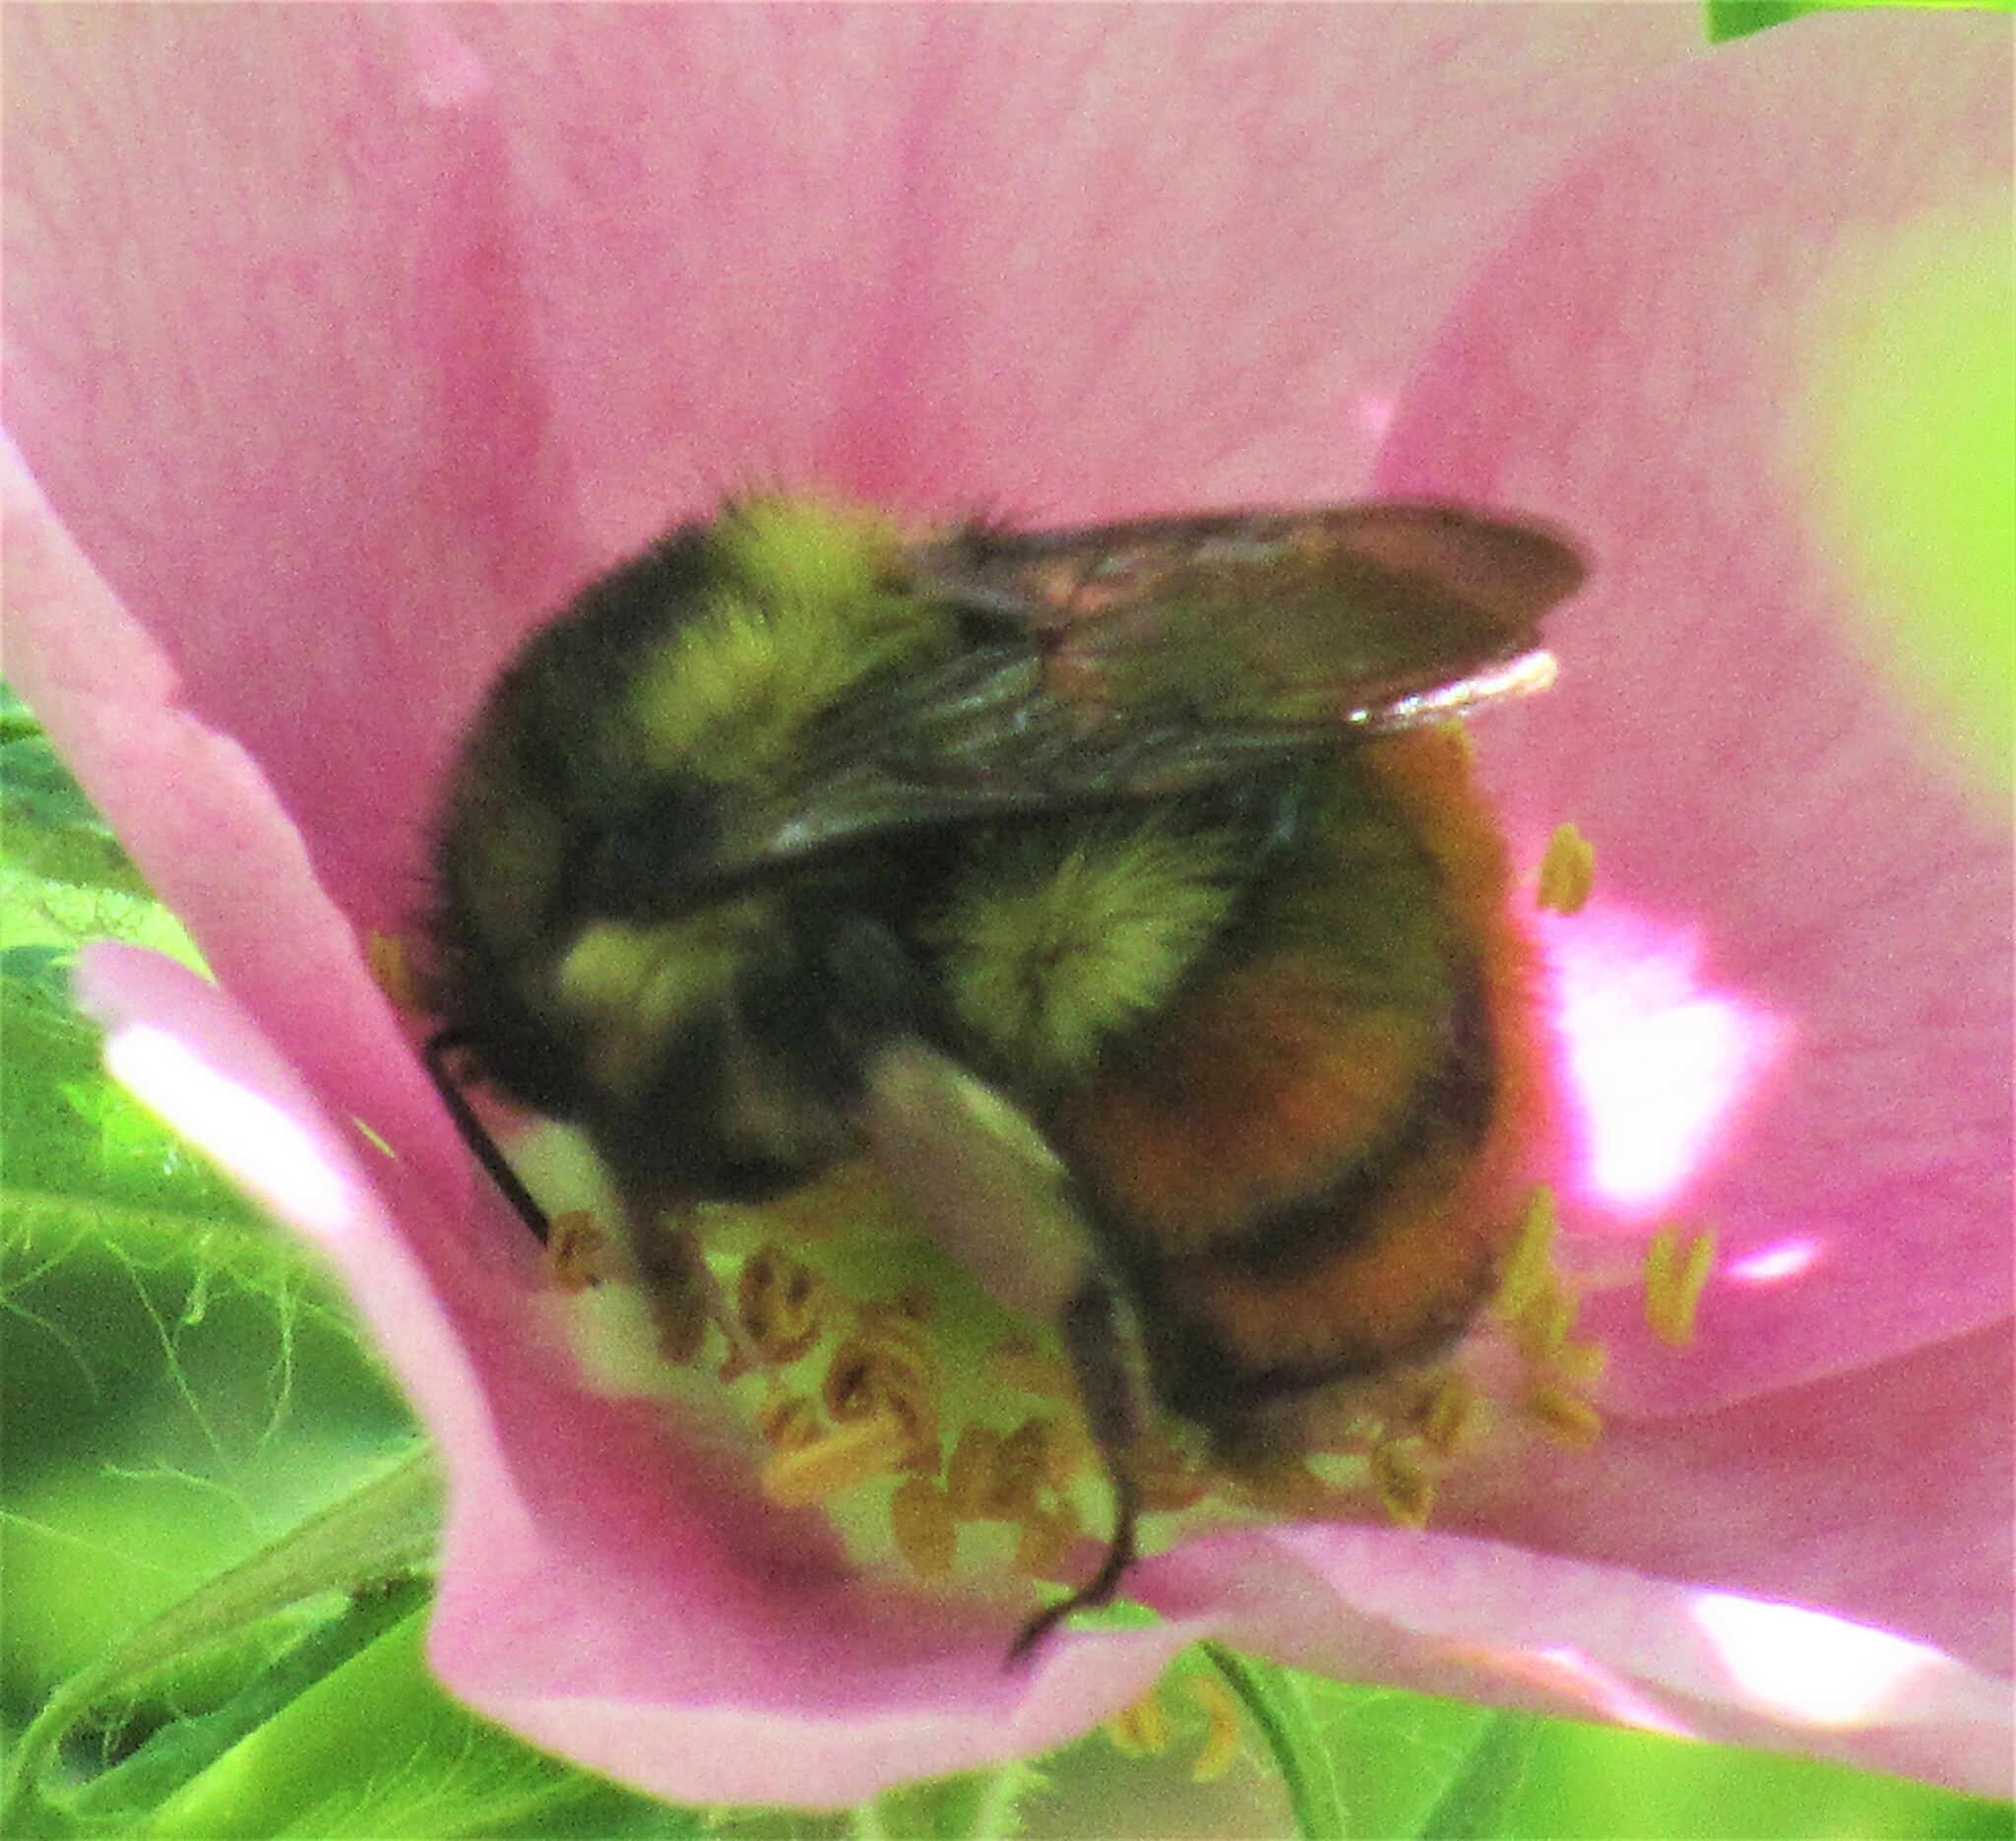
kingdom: Animalia
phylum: Arthropoda
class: Insecta
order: Hymenoptera
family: Apidae
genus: Bombus
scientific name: Bombus melanopygus
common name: Black tail bumble bee
